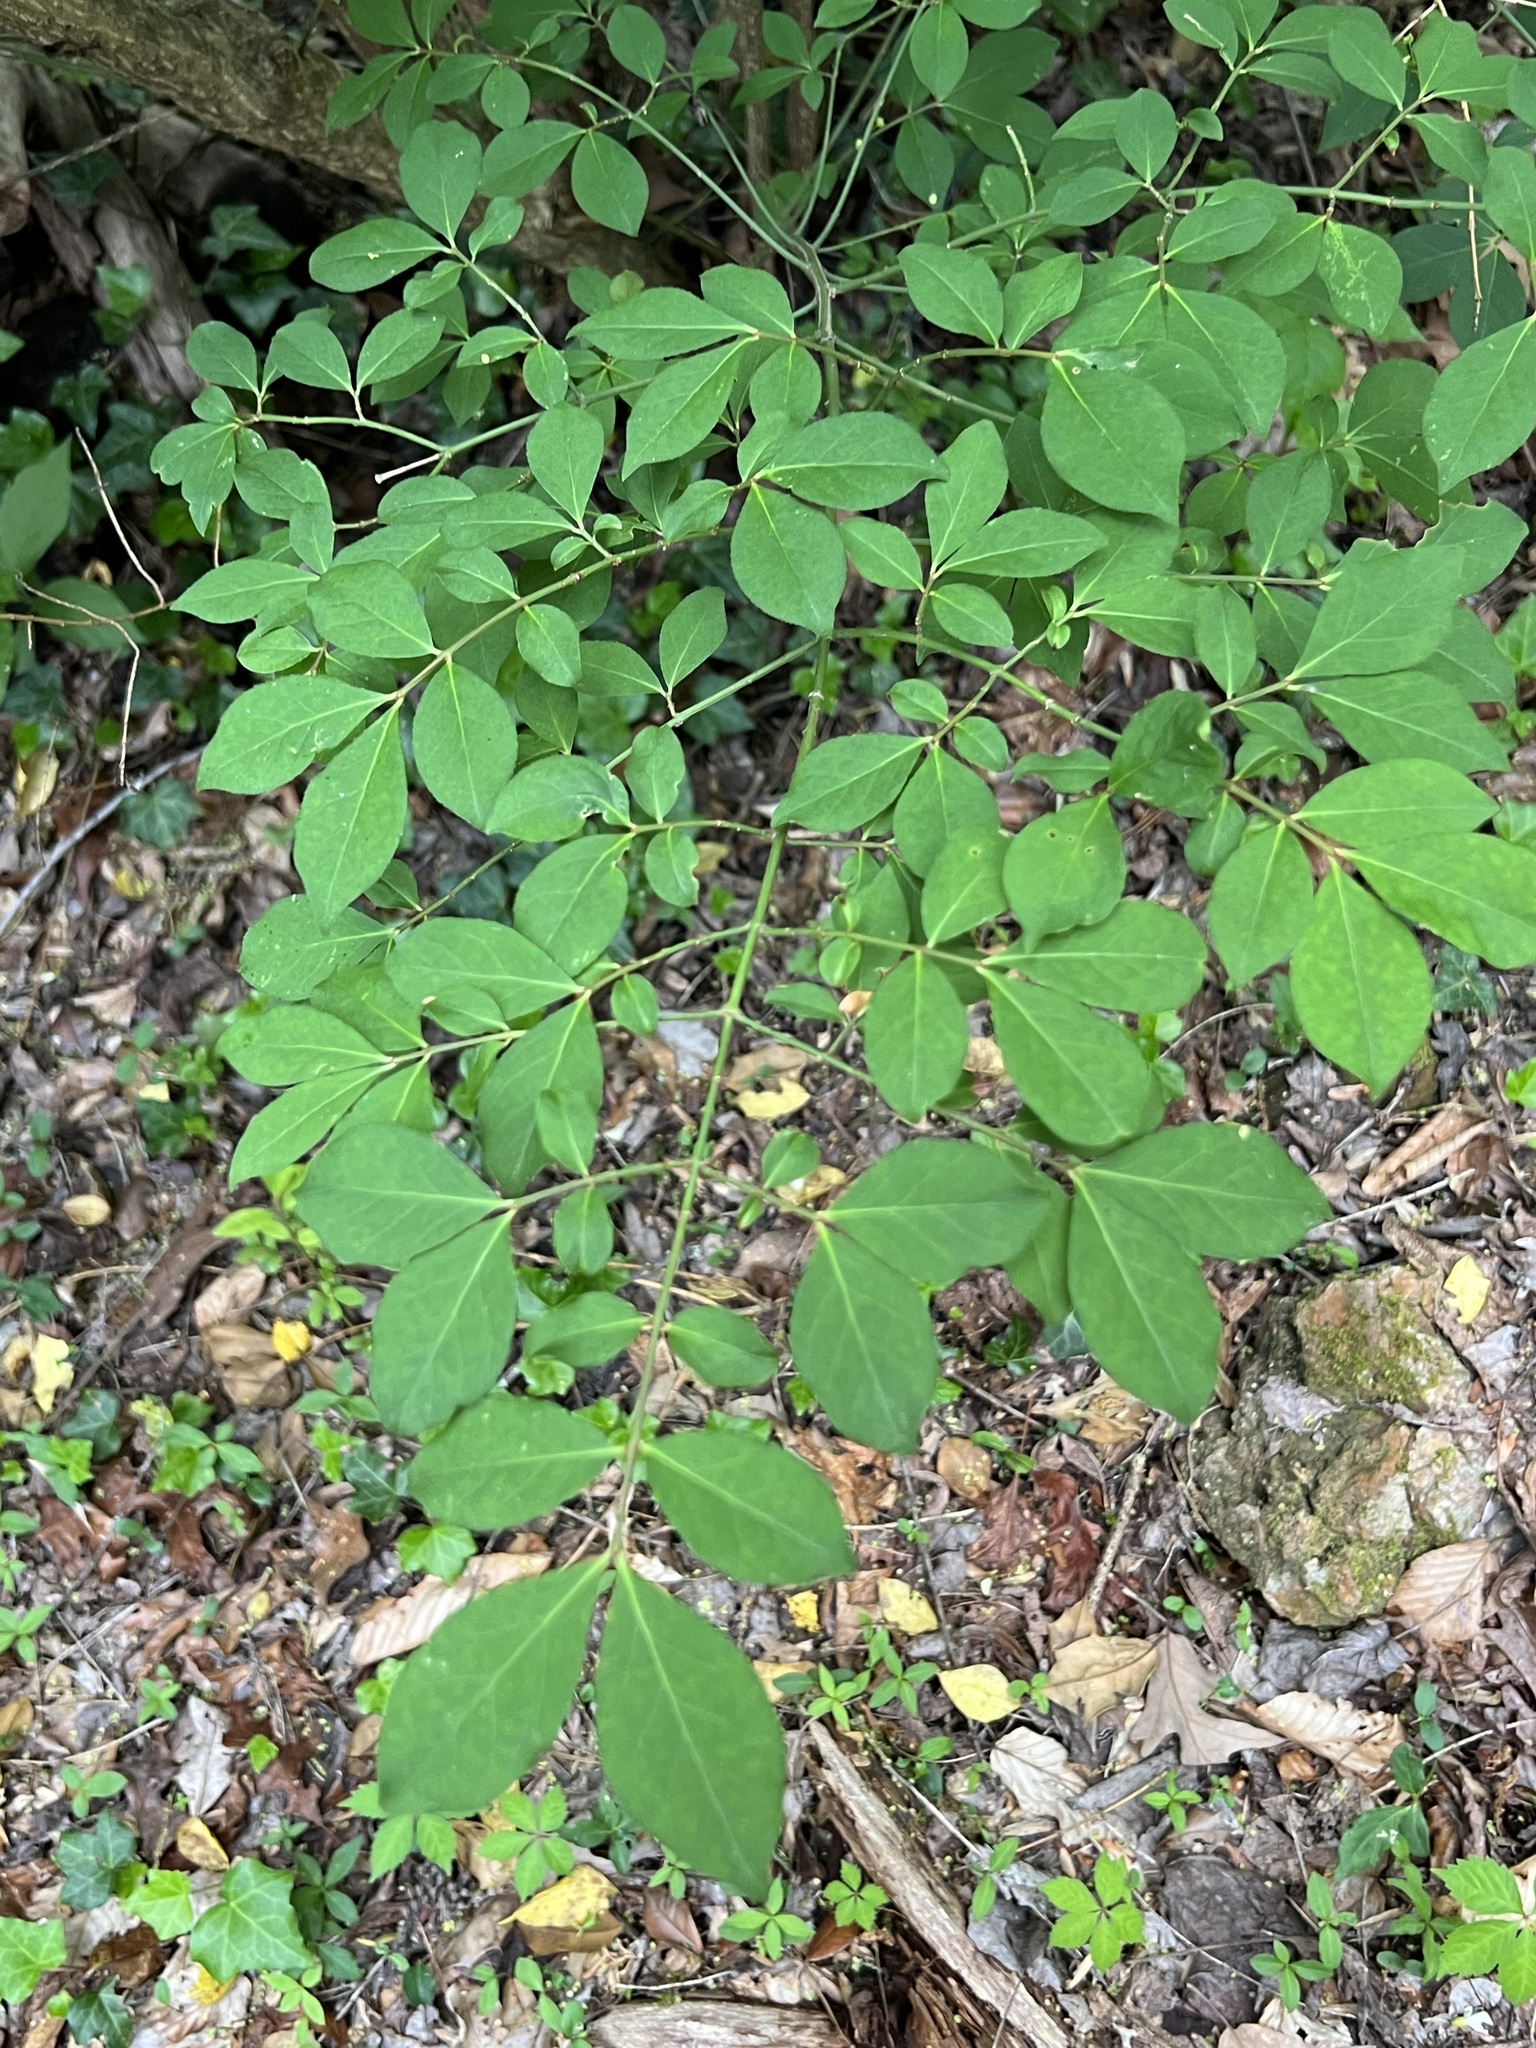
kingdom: Plantae
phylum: Tracheophyta
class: Magnoliopsida
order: Celastrales
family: Celastraceae
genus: Euonymus
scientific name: Euonymus alatus
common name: Winged euonymus
